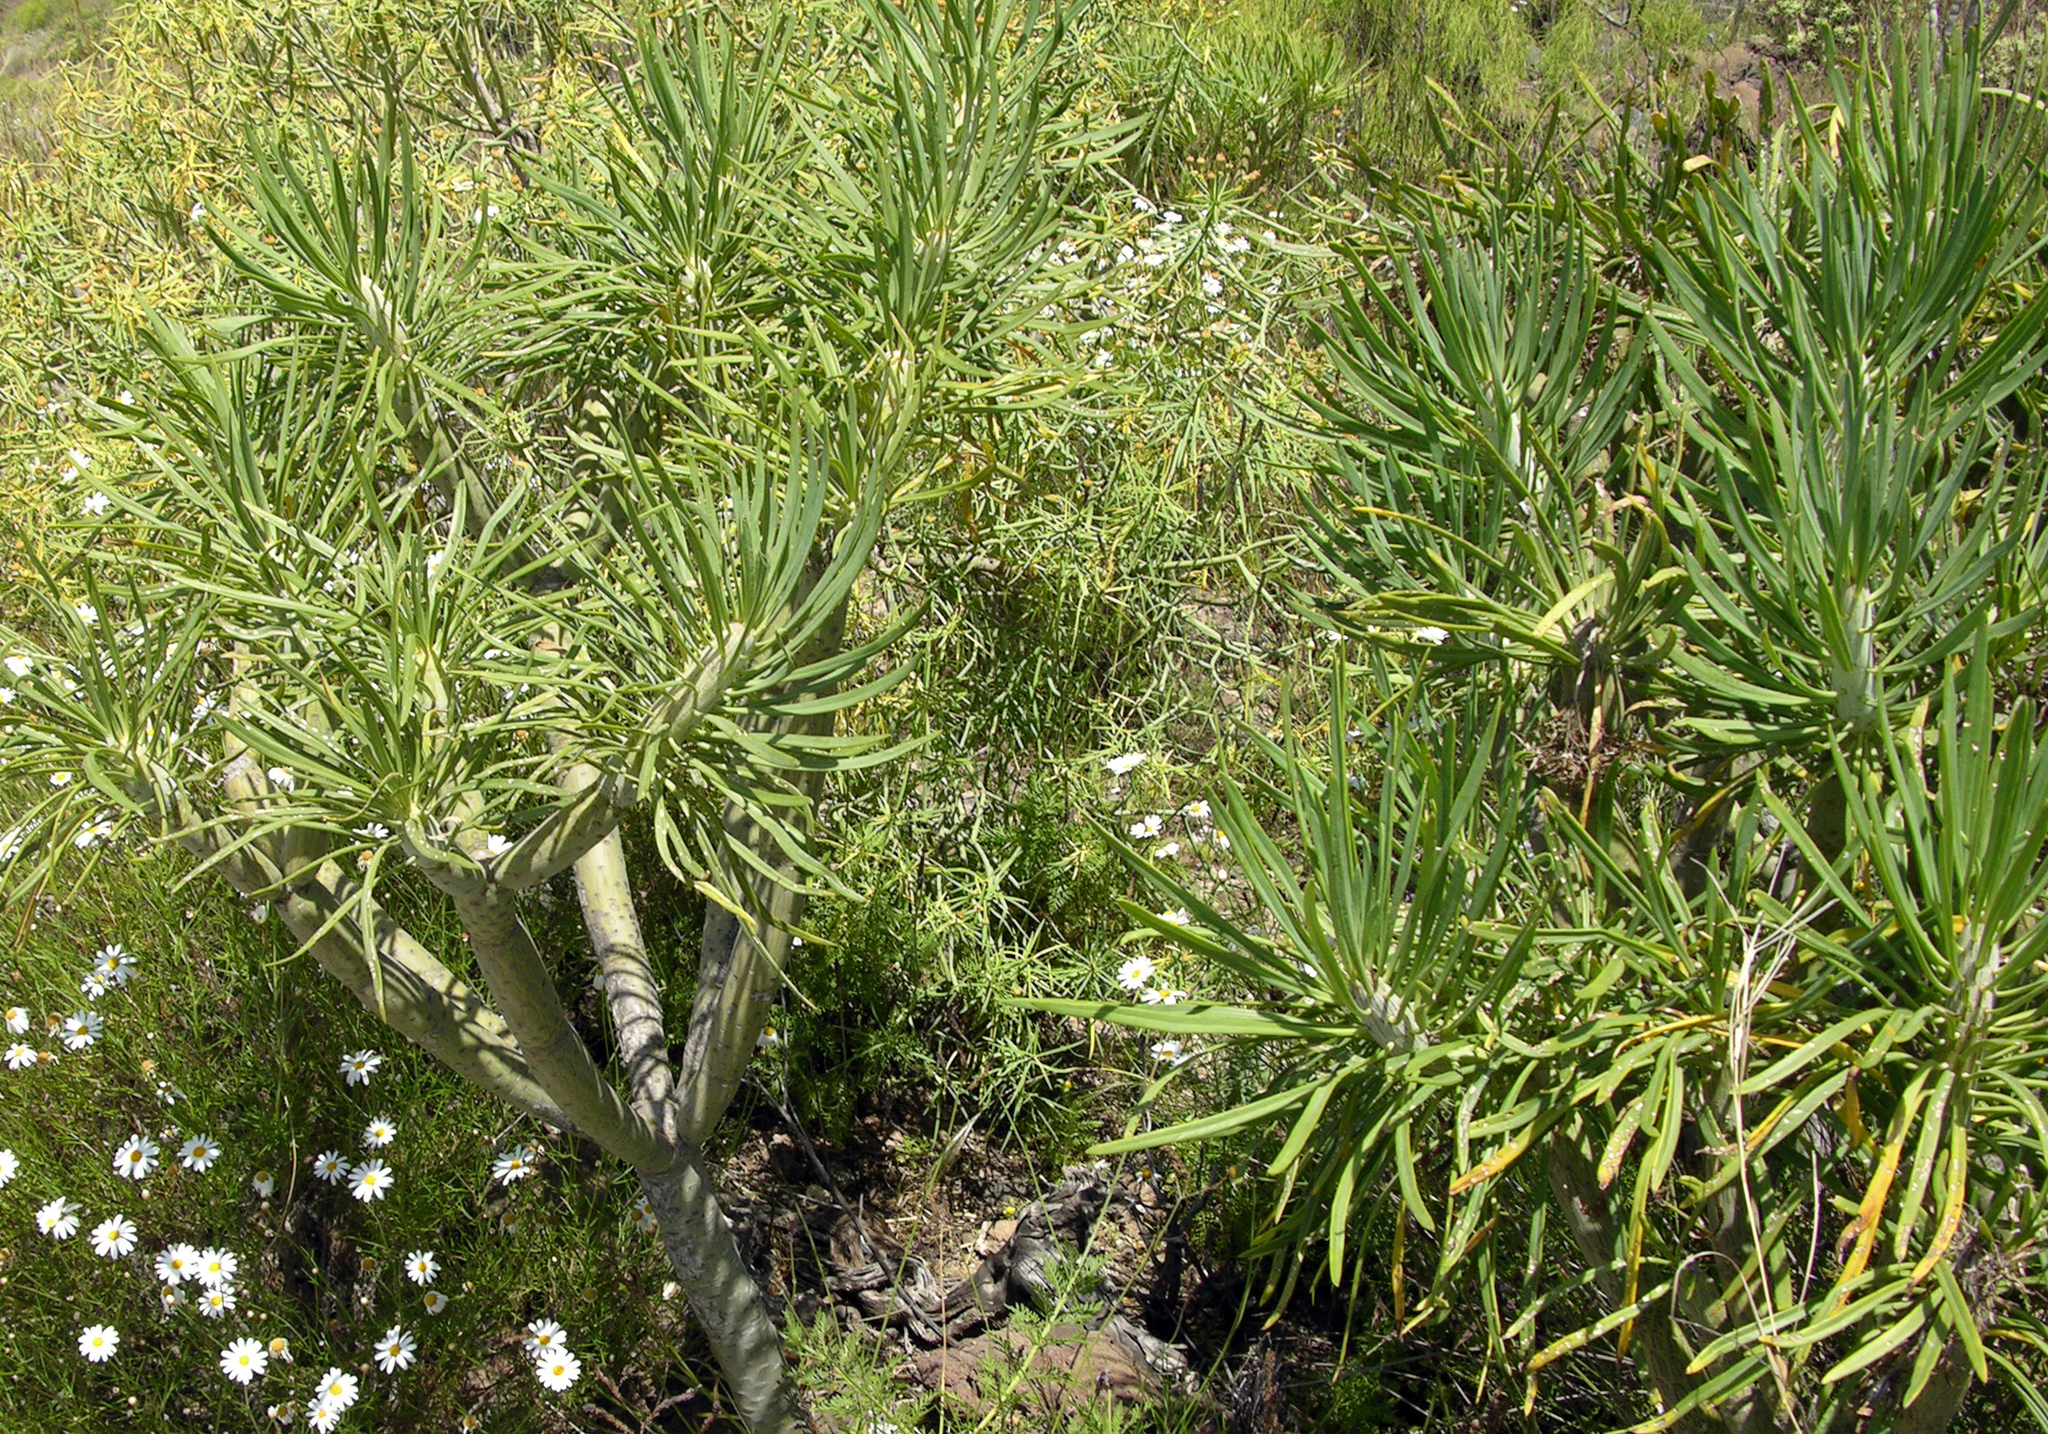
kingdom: Plantae
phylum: Tracheophyta
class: Magnoliopsida
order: Asterales
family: Asteraceae
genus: Kleinia
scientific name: Kleinia neriifolia
